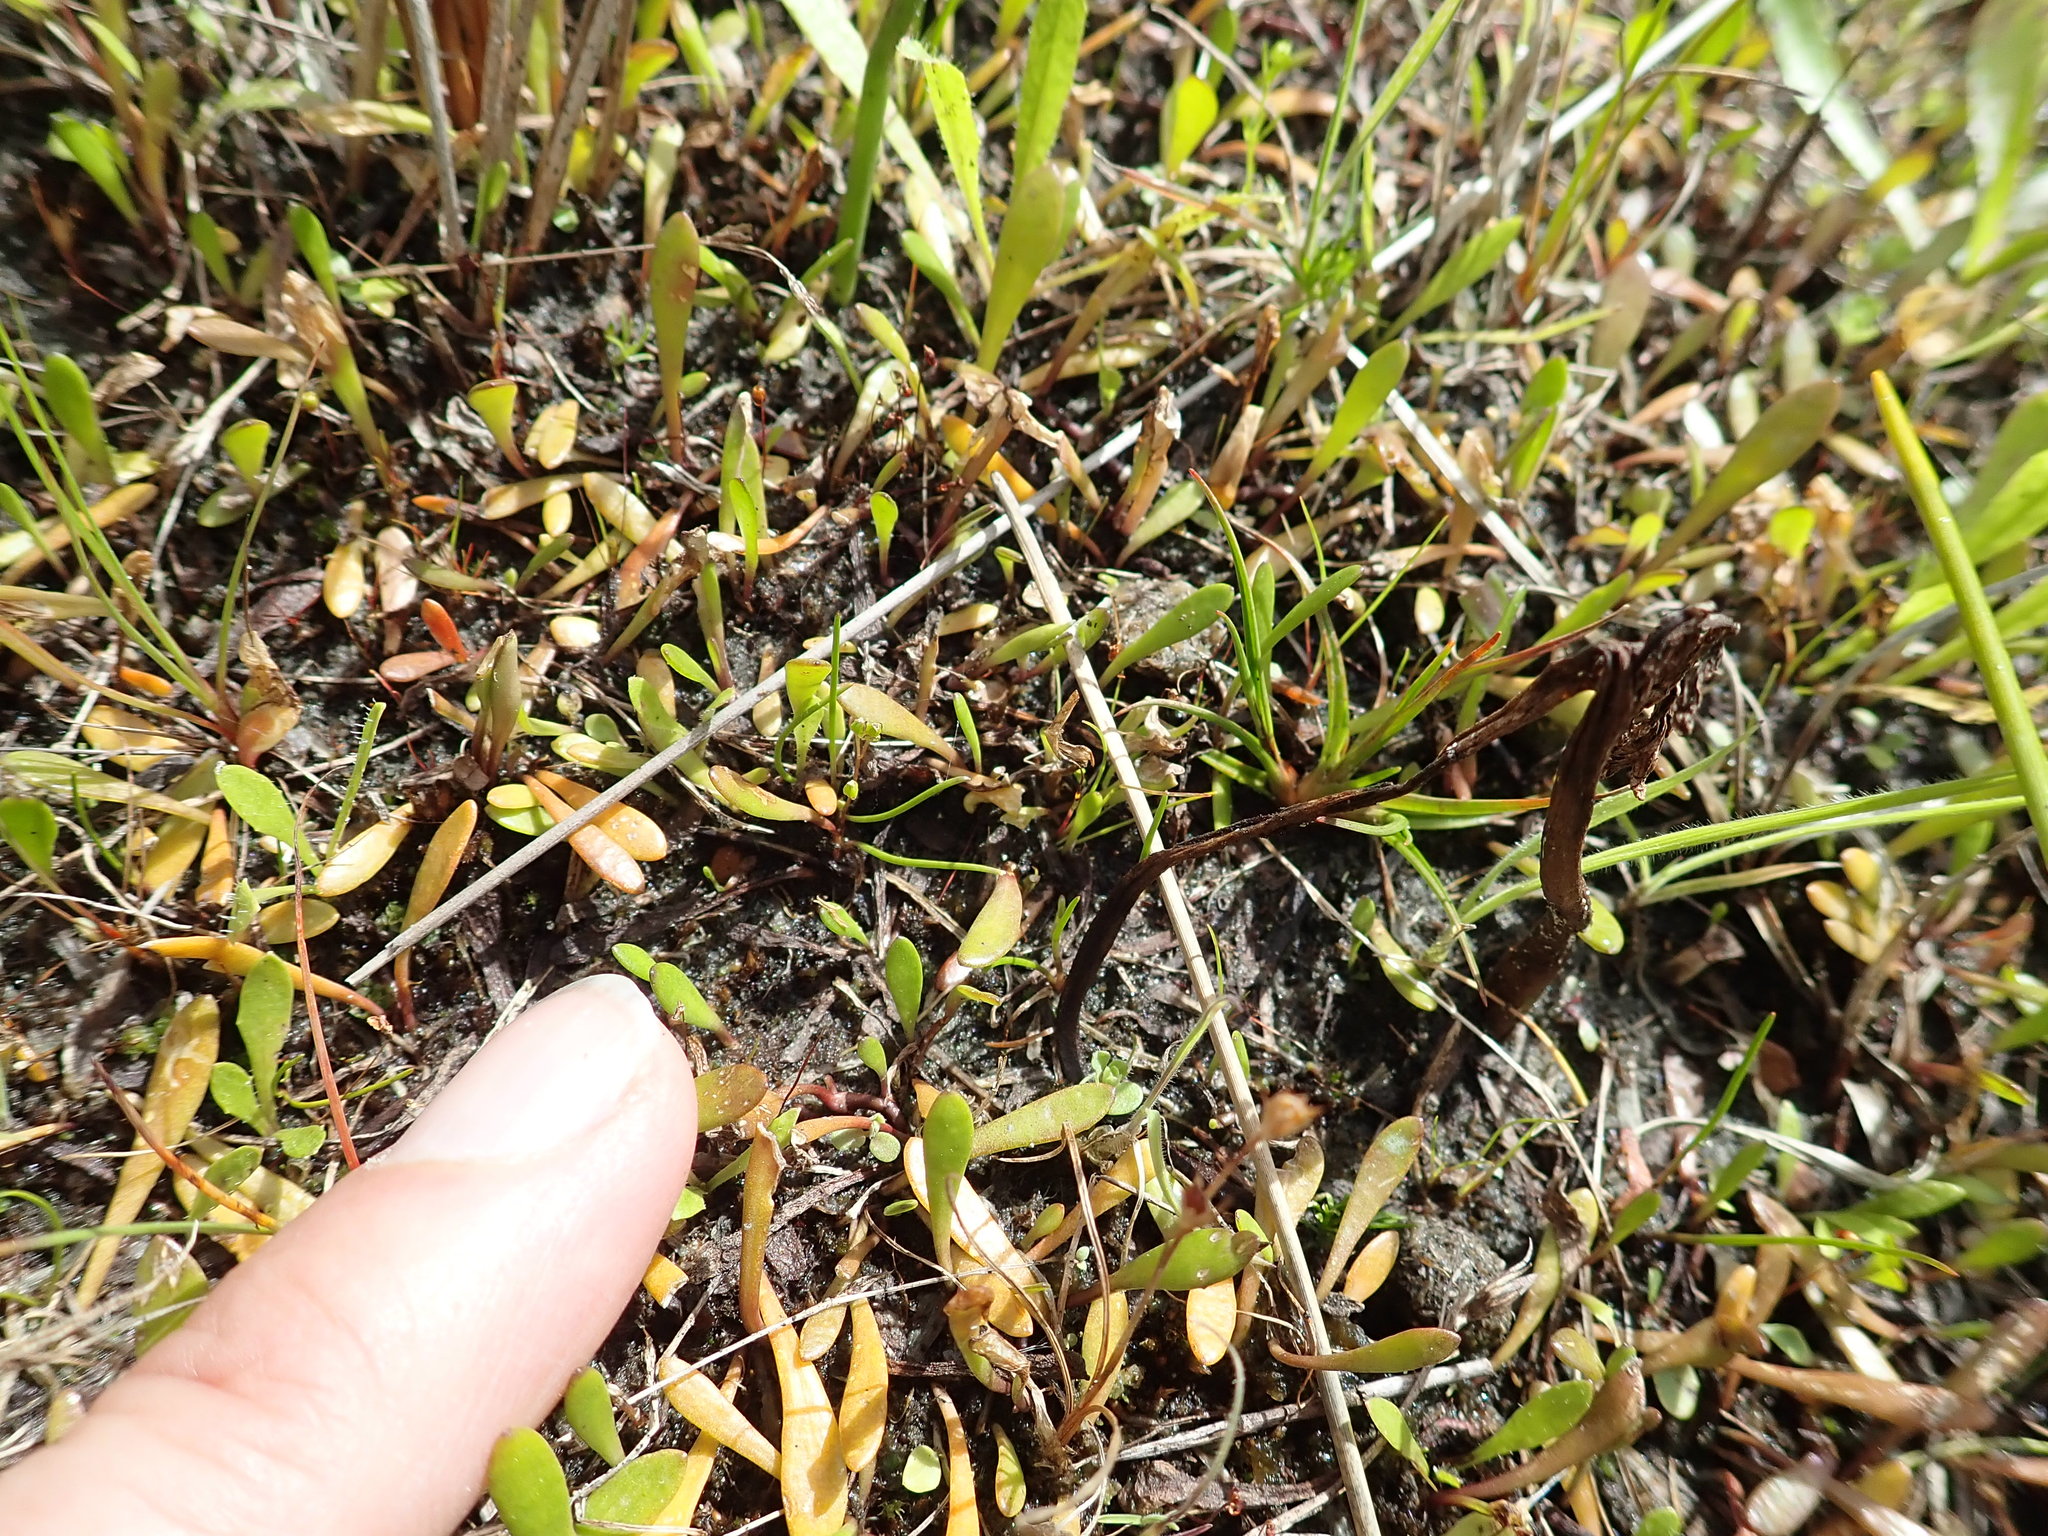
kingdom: Plantae
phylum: Tracheophyta
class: Magnoliopsida
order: Asterales
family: Goodeniaceae
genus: Goodenia
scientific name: Goodenia radicans
